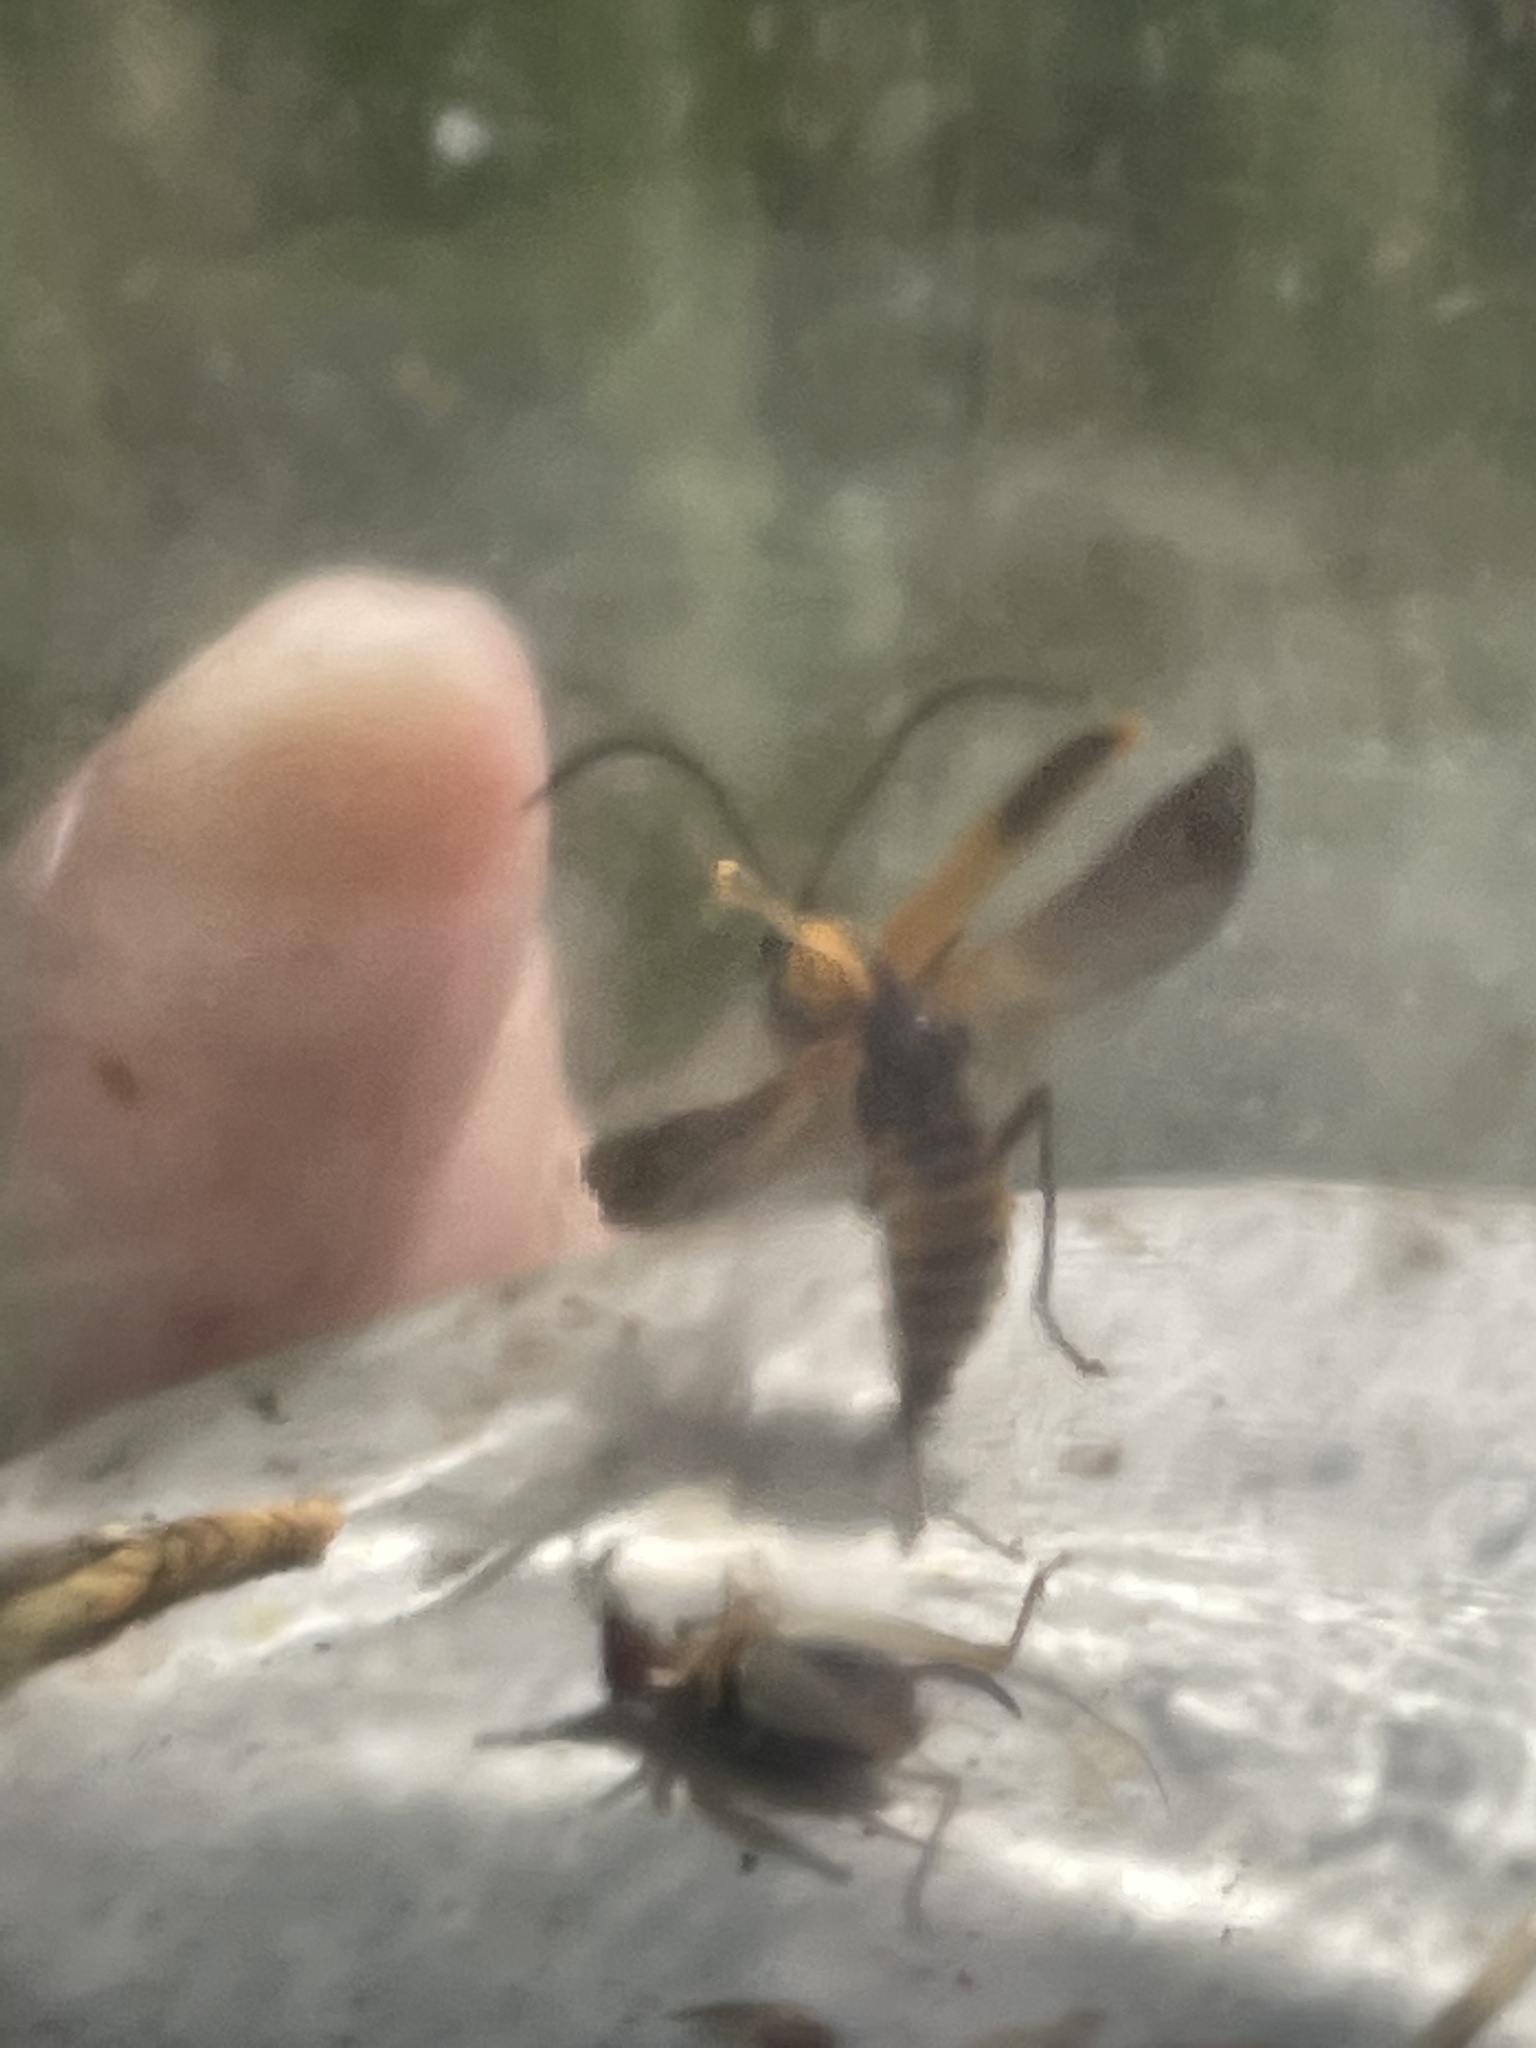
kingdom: Animalia
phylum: Arthropoda
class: Insecta
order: Coleoptera
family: Cantharidae
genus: Chauliognathus
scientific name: Chauliognathus pensylvanicus
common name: Goldenrod soldier beetle
